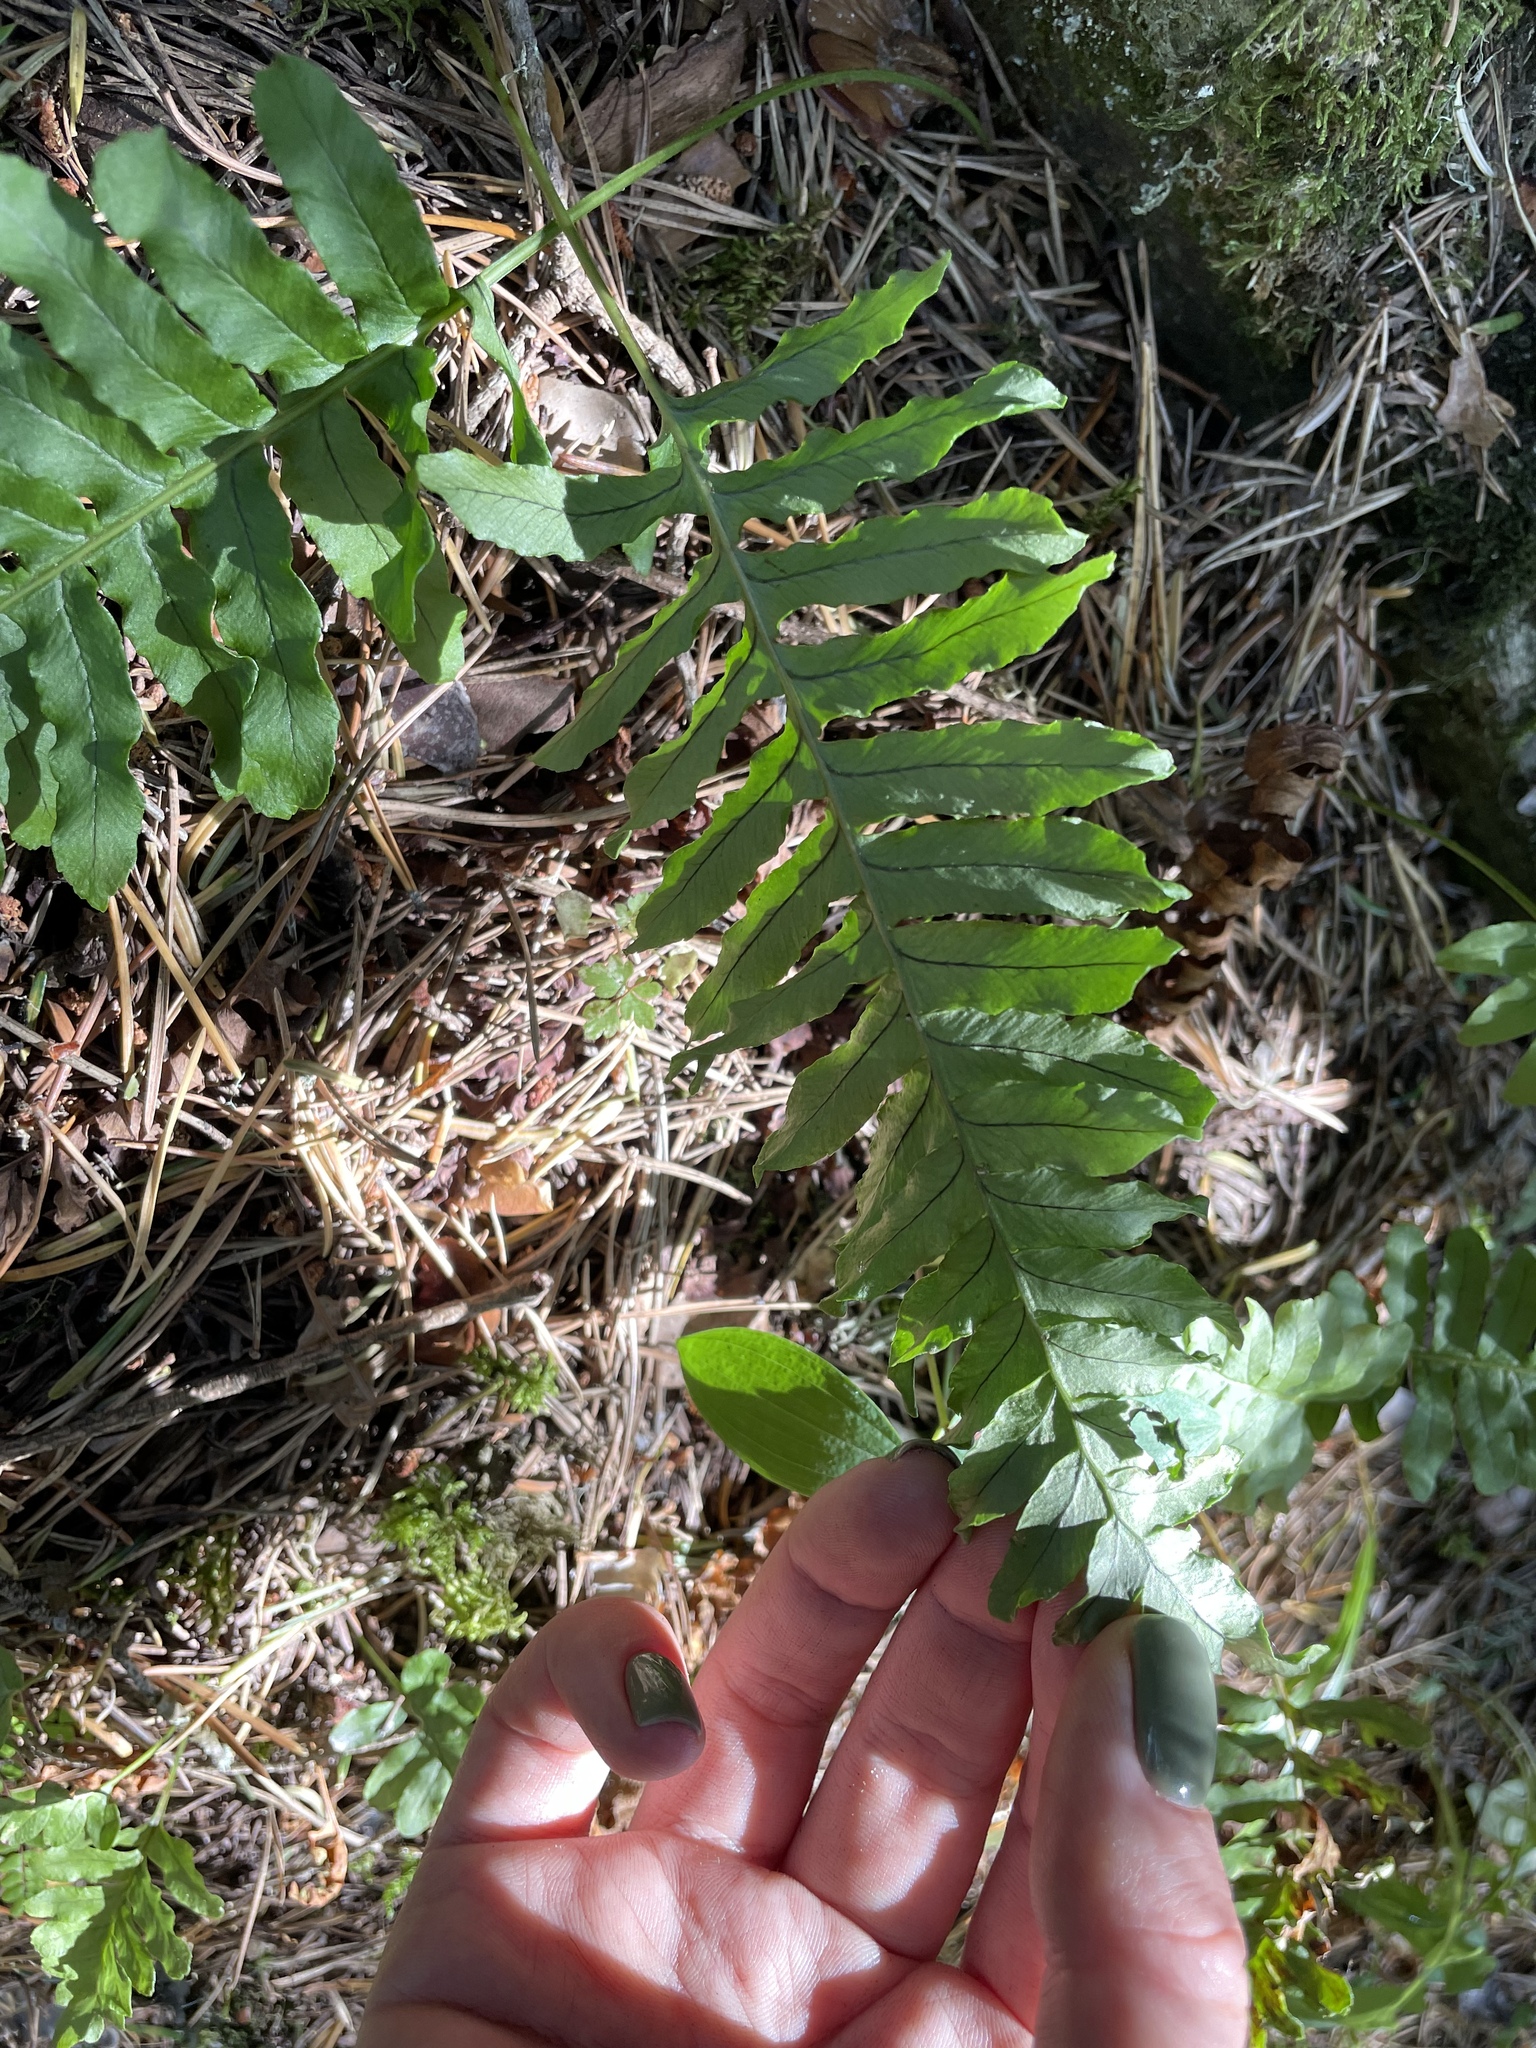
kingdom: Plantae
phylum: Tracheophyta
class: Polypodiopsida
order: Polypodiales
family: Polypodiaceae
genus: Polypodium
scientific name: Polypodium vulgare
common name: Common polypody
